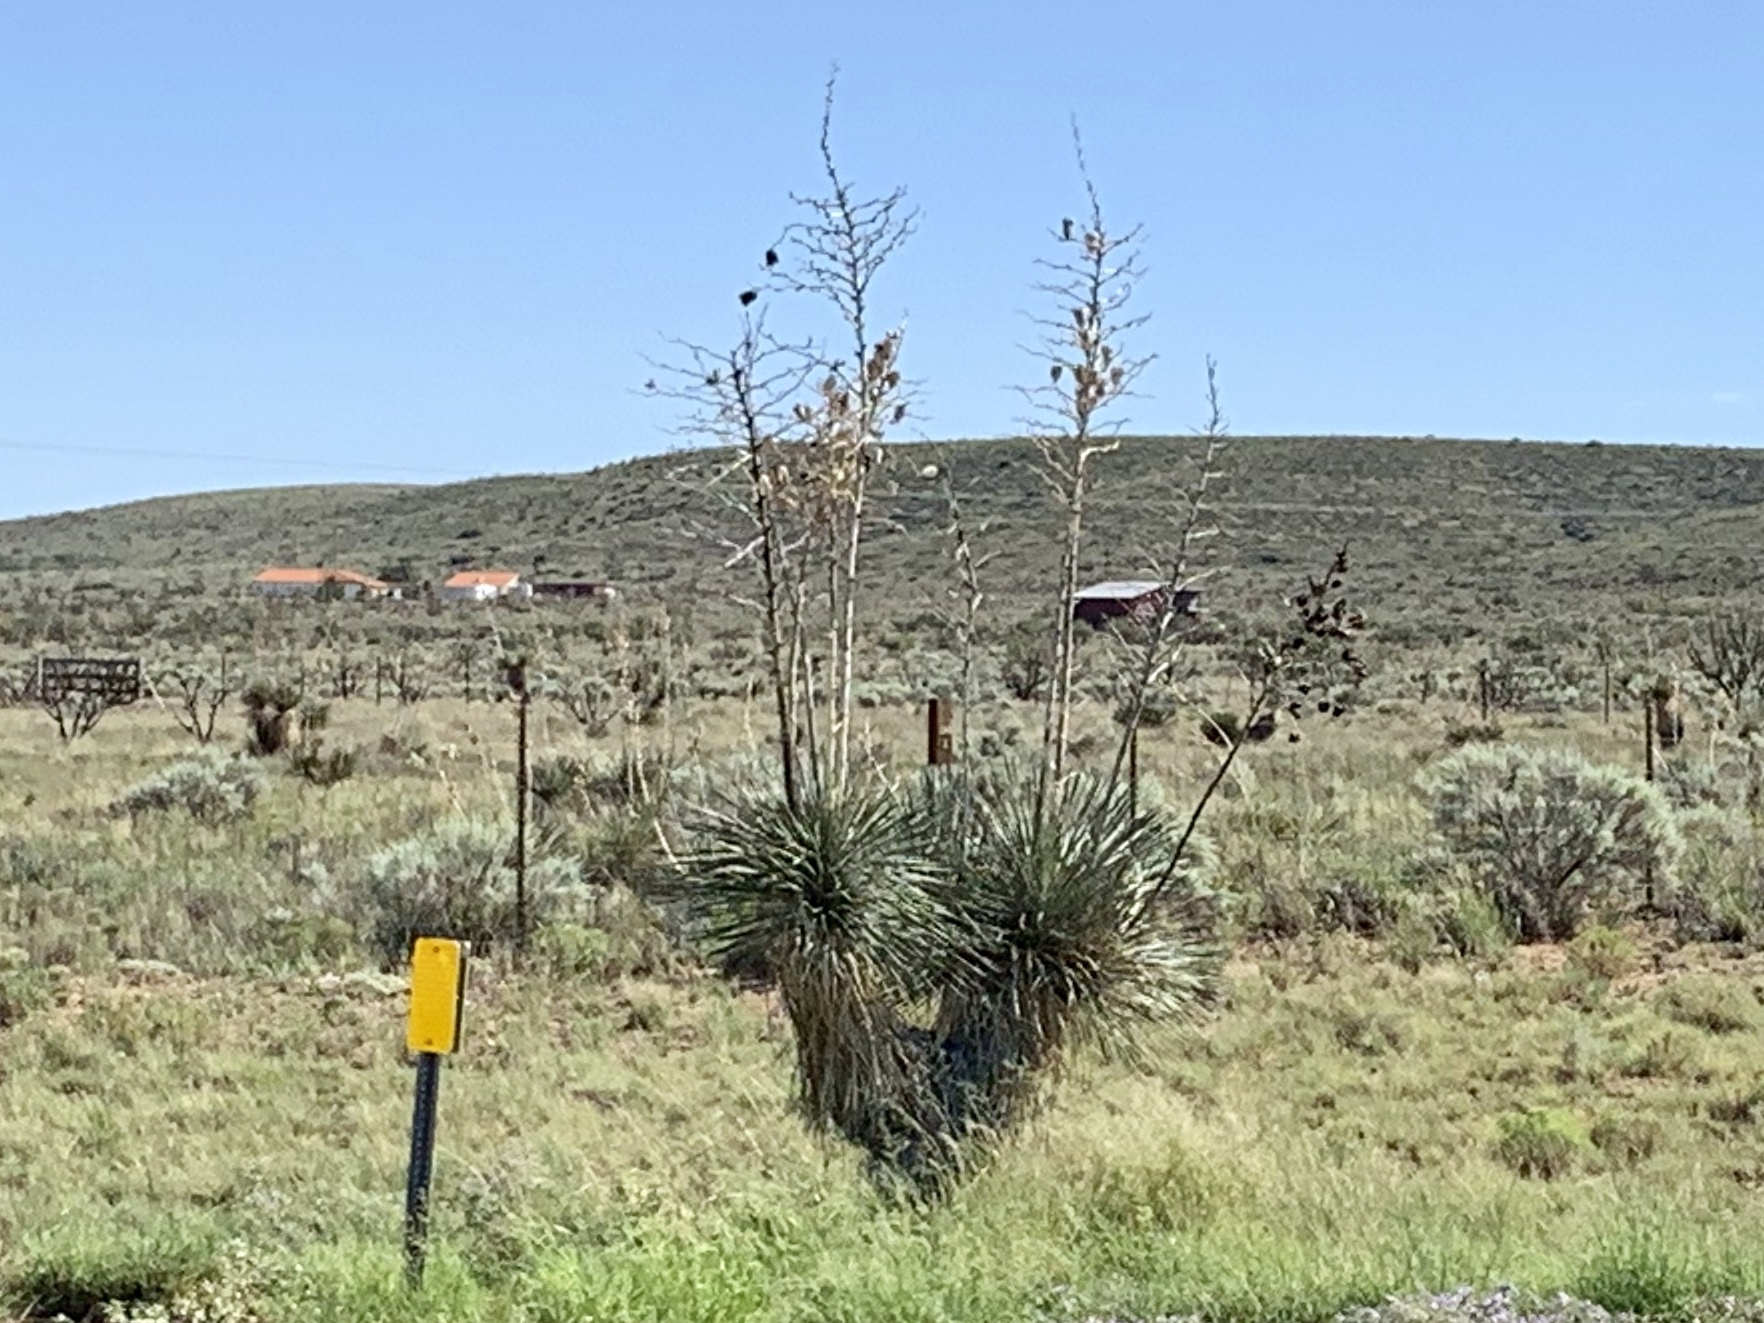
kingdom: Plantae
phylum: Tracheophyta
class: Liliopsida
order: Asparagales
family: Asparagaceae
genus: Yucca
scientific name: Yucca elata
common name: Palmella
